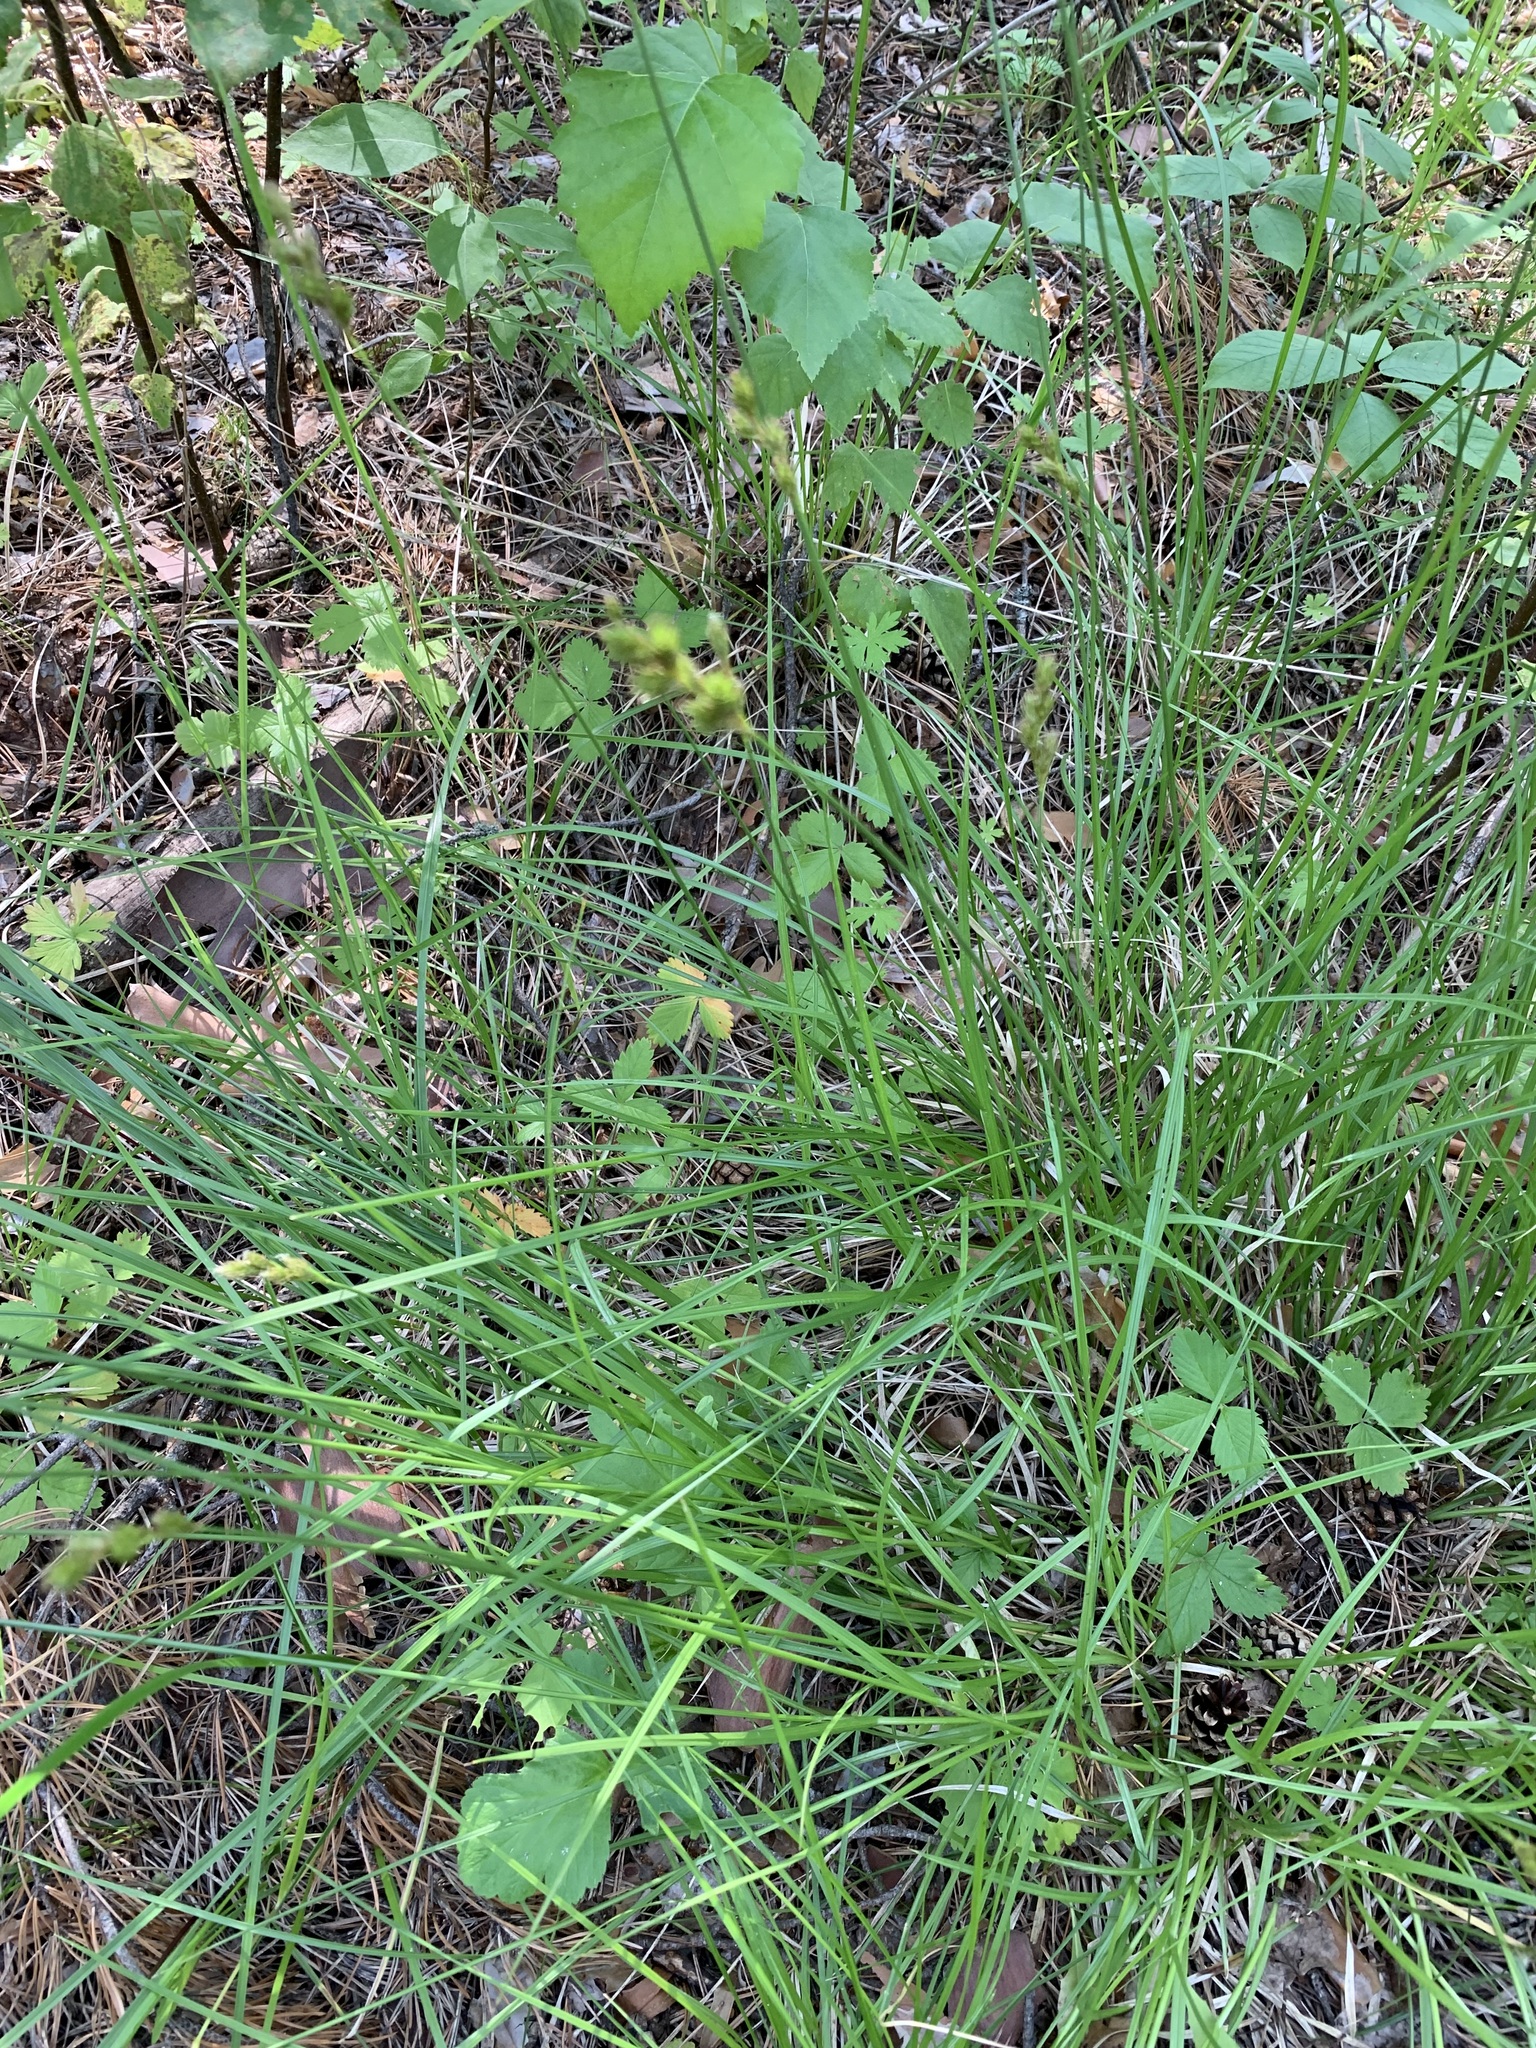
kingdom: Plantae
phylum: Tracheophyta
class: Liliopsida
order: Poales
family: Cyperaceae
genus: Carex
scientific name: Carex leporina
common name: Oval sedge
